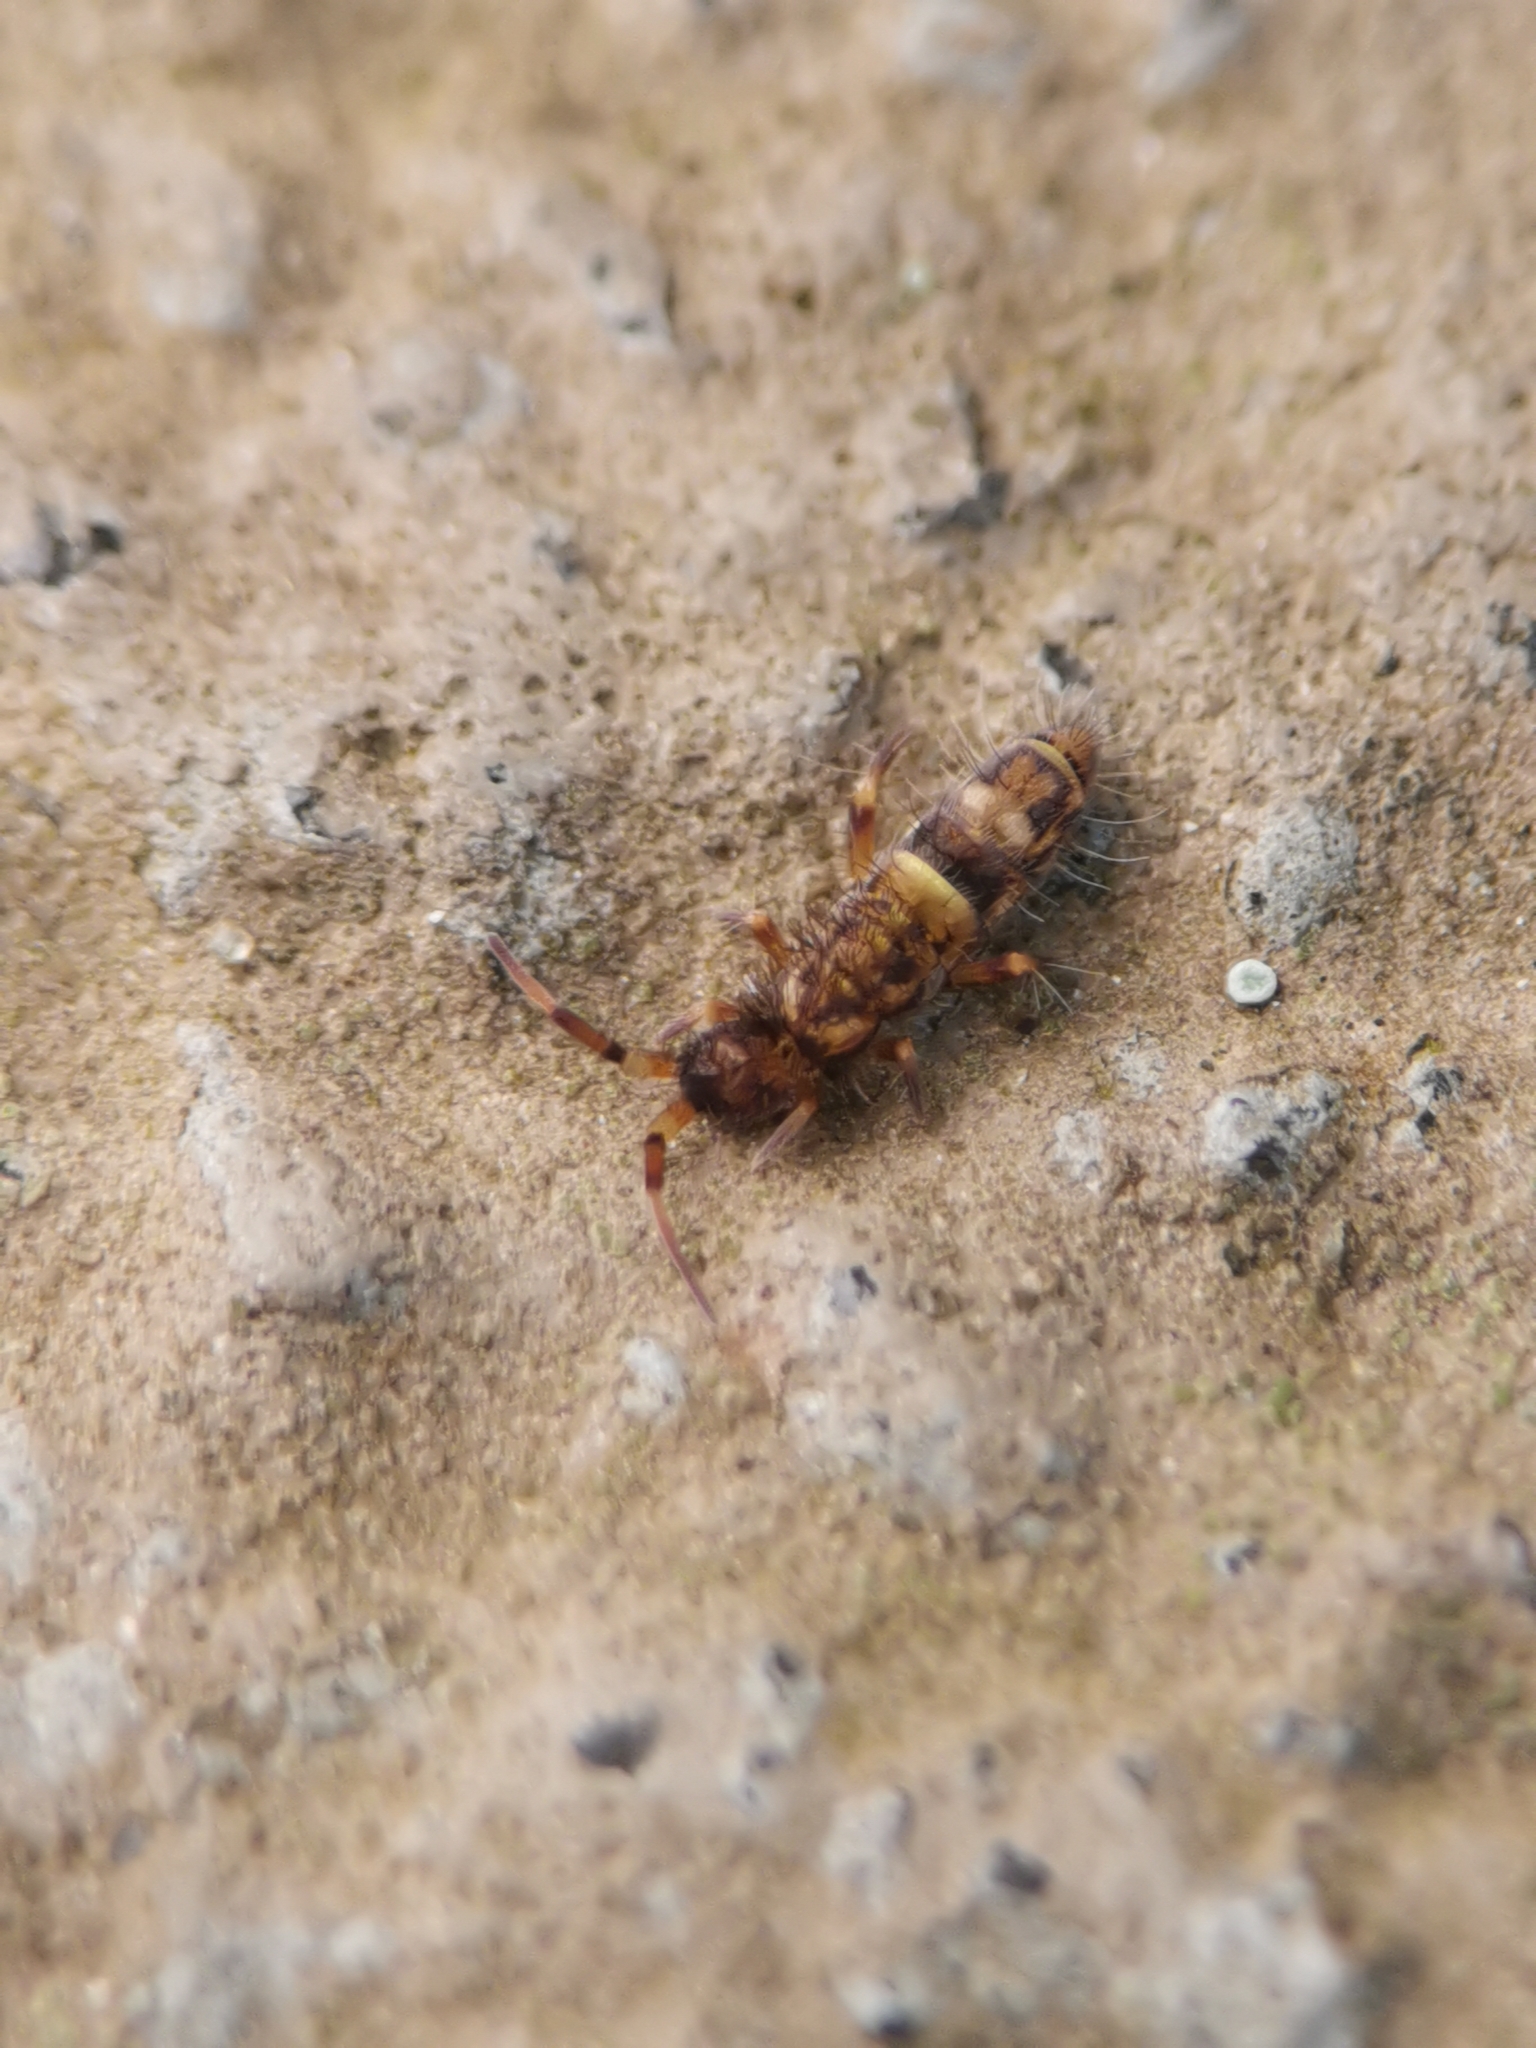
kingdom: Animalia
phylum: Arthropoda
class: Collembola
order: Entomobryomorpha
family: Orchesellidae
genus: Orchesella
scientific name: Orchesella cincta
